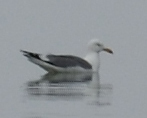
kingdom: Animalia
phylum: Chordata
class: Aves
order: Charadriiformes
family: Laridae
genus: Larus
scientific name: Larus vegae
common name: Vega gull
